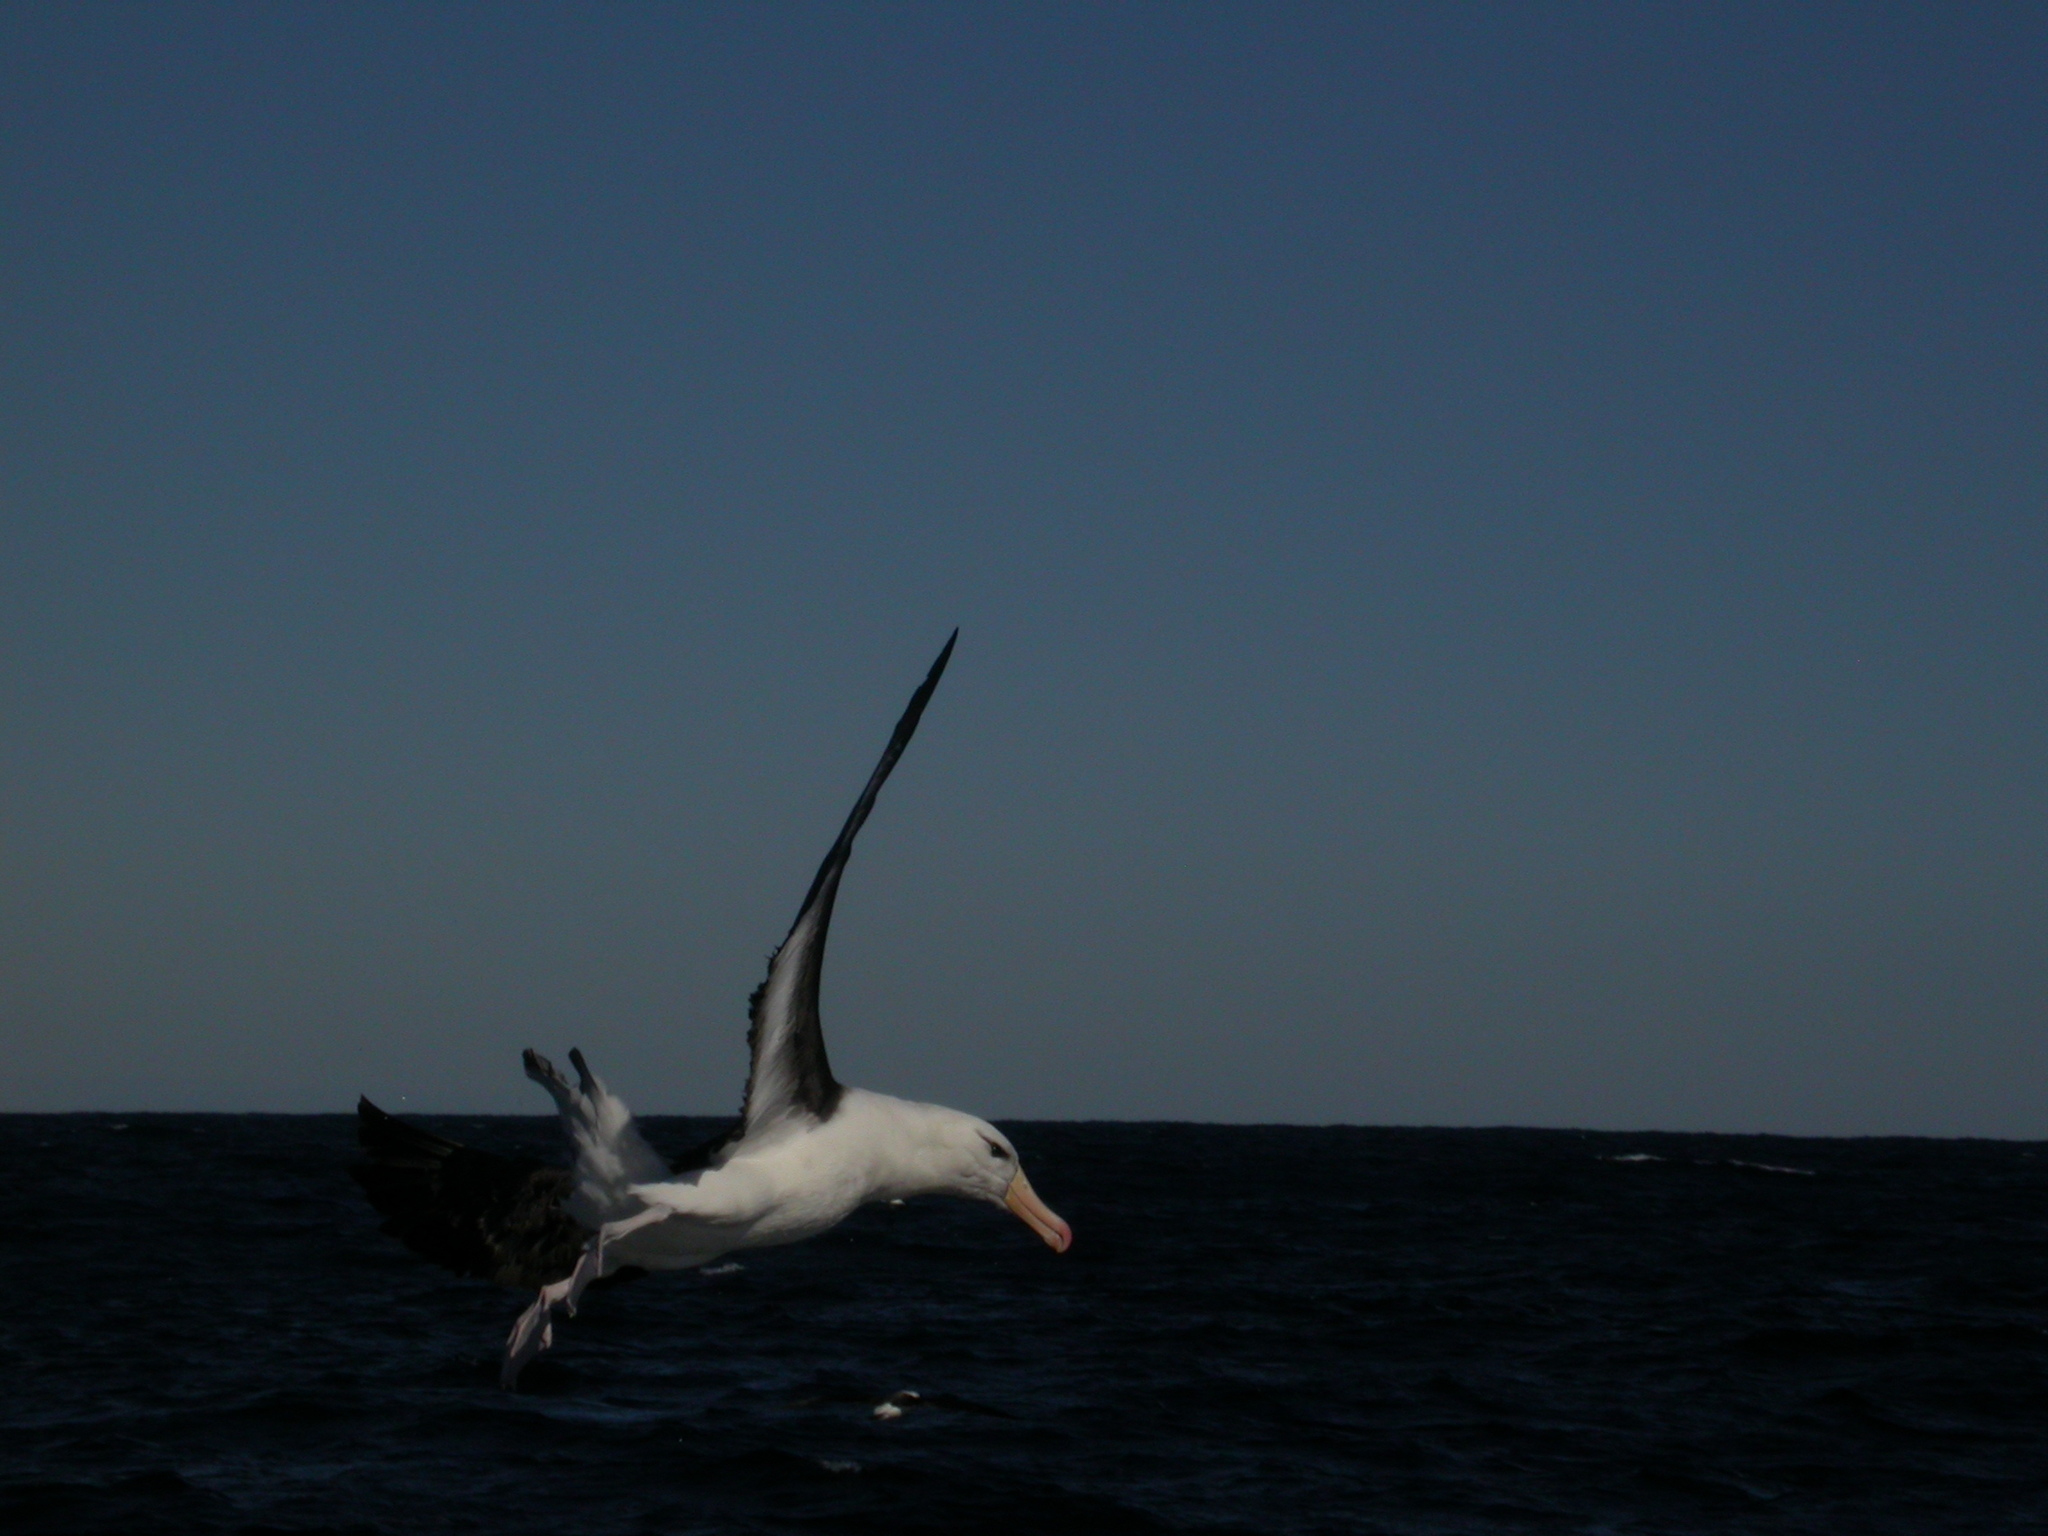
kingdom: Animalia
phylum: Chordata
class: Aves
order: Procellariiformes
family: Diomedeidae
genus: Thalassarche
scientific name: Thalassarche melanophris
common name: Black-browed albatross
